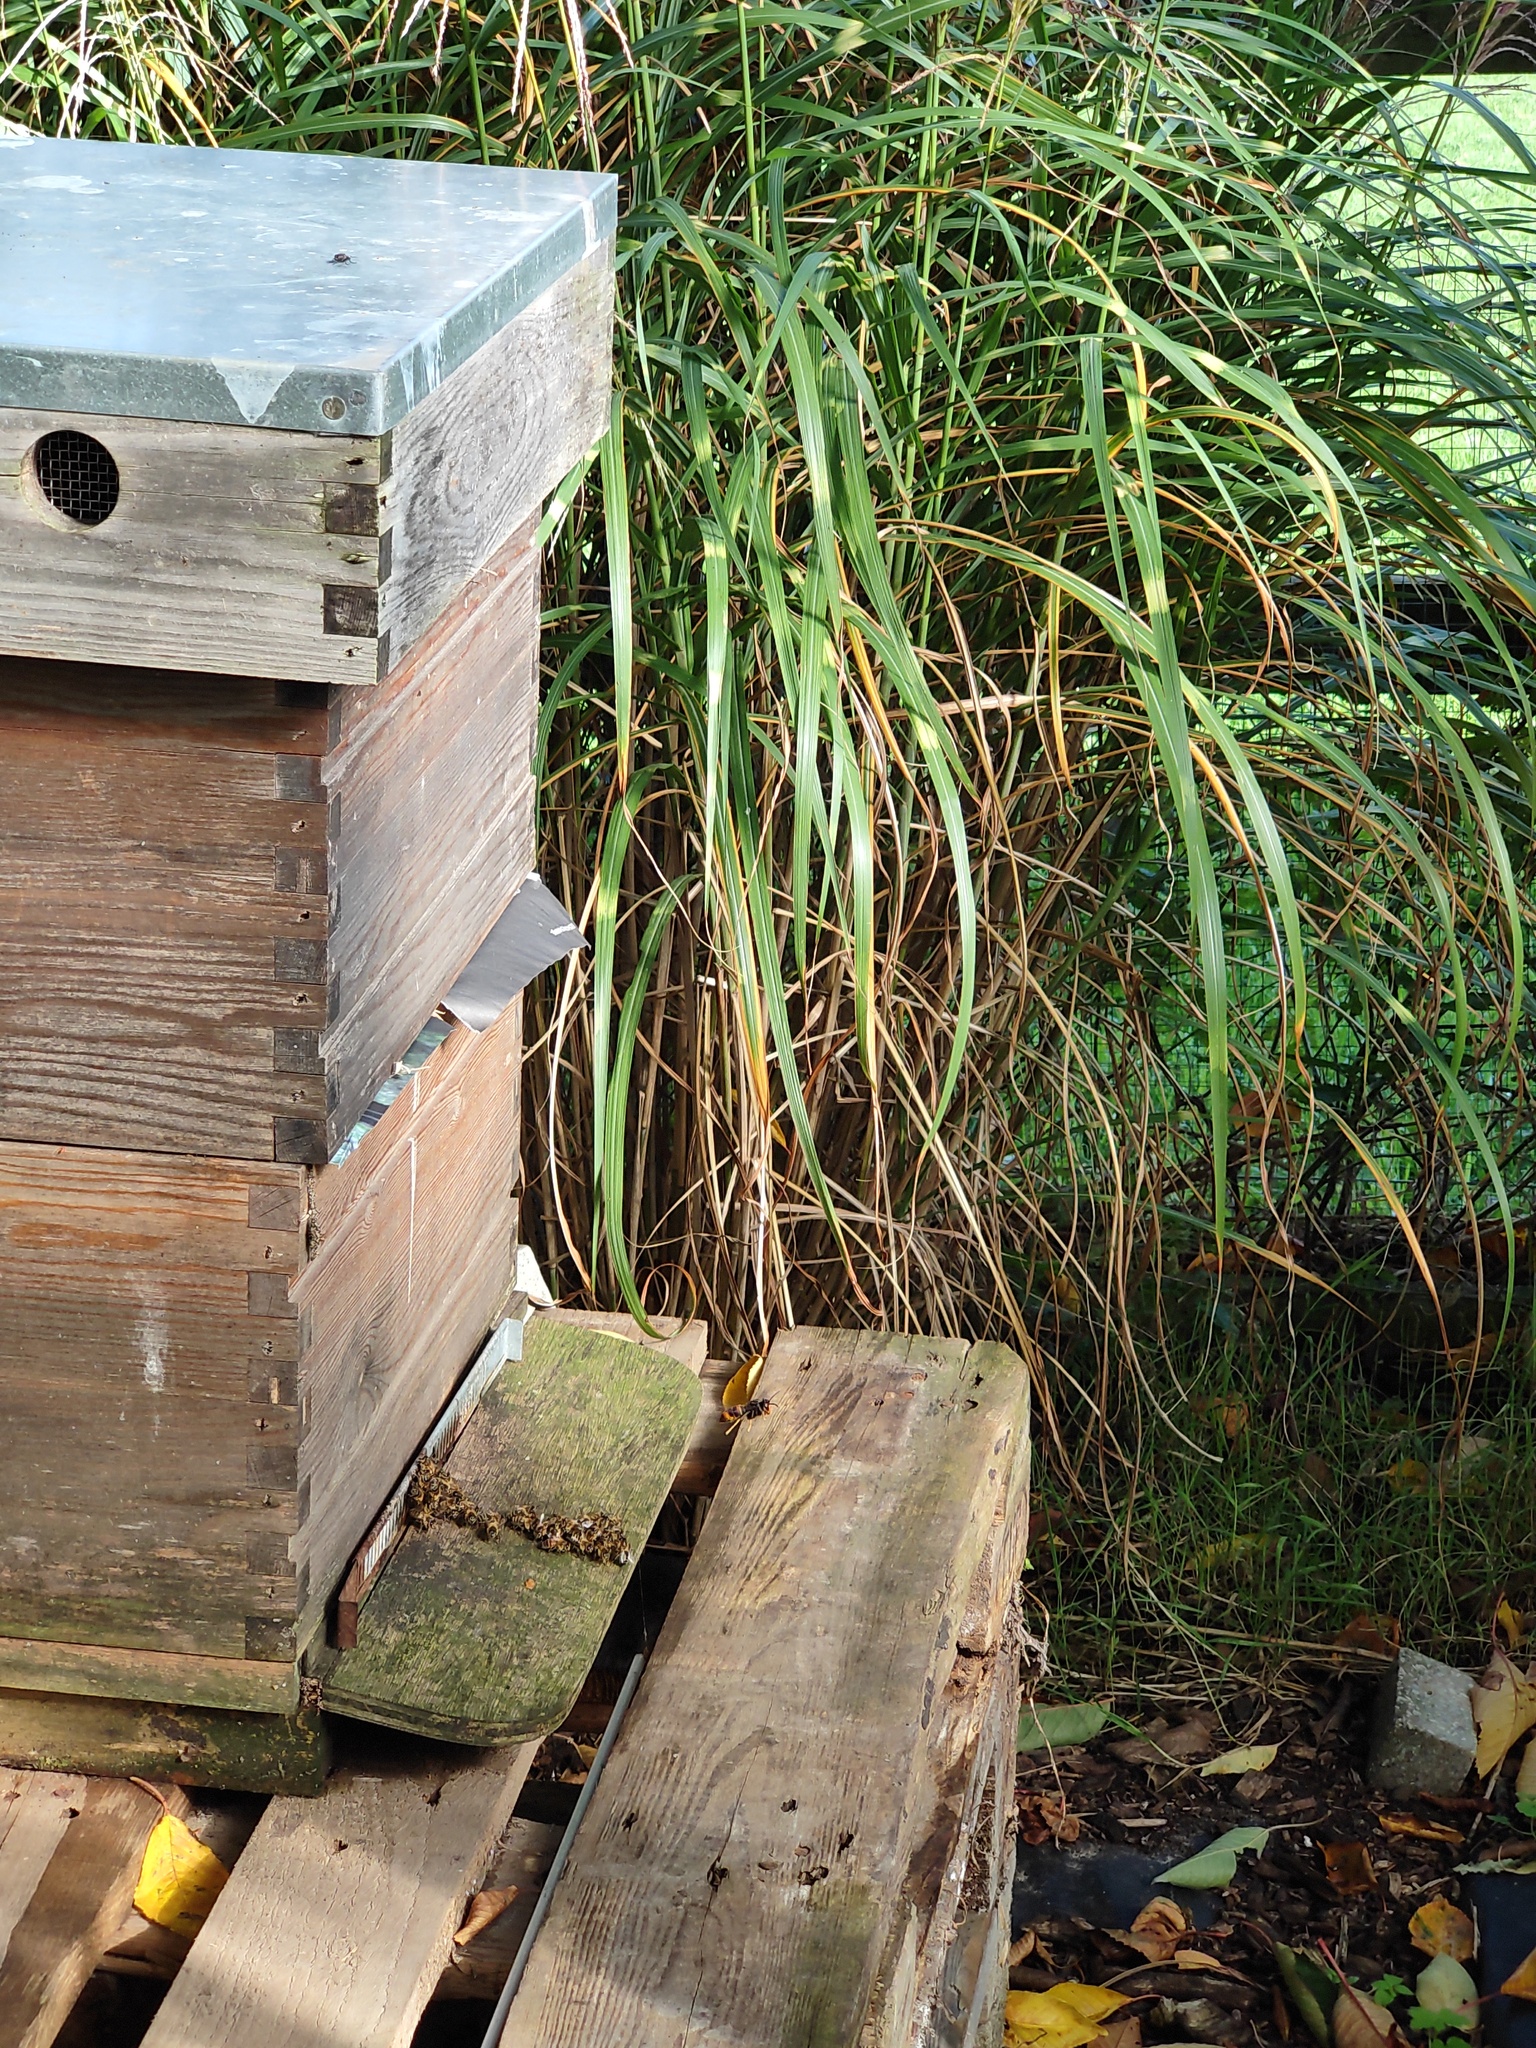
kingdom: Animalia
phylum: Arthropoda
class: Insecta
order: Hymenoptera
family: Vespidae
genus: Vespa
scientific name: Vespa velutina
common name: Asian hornet
